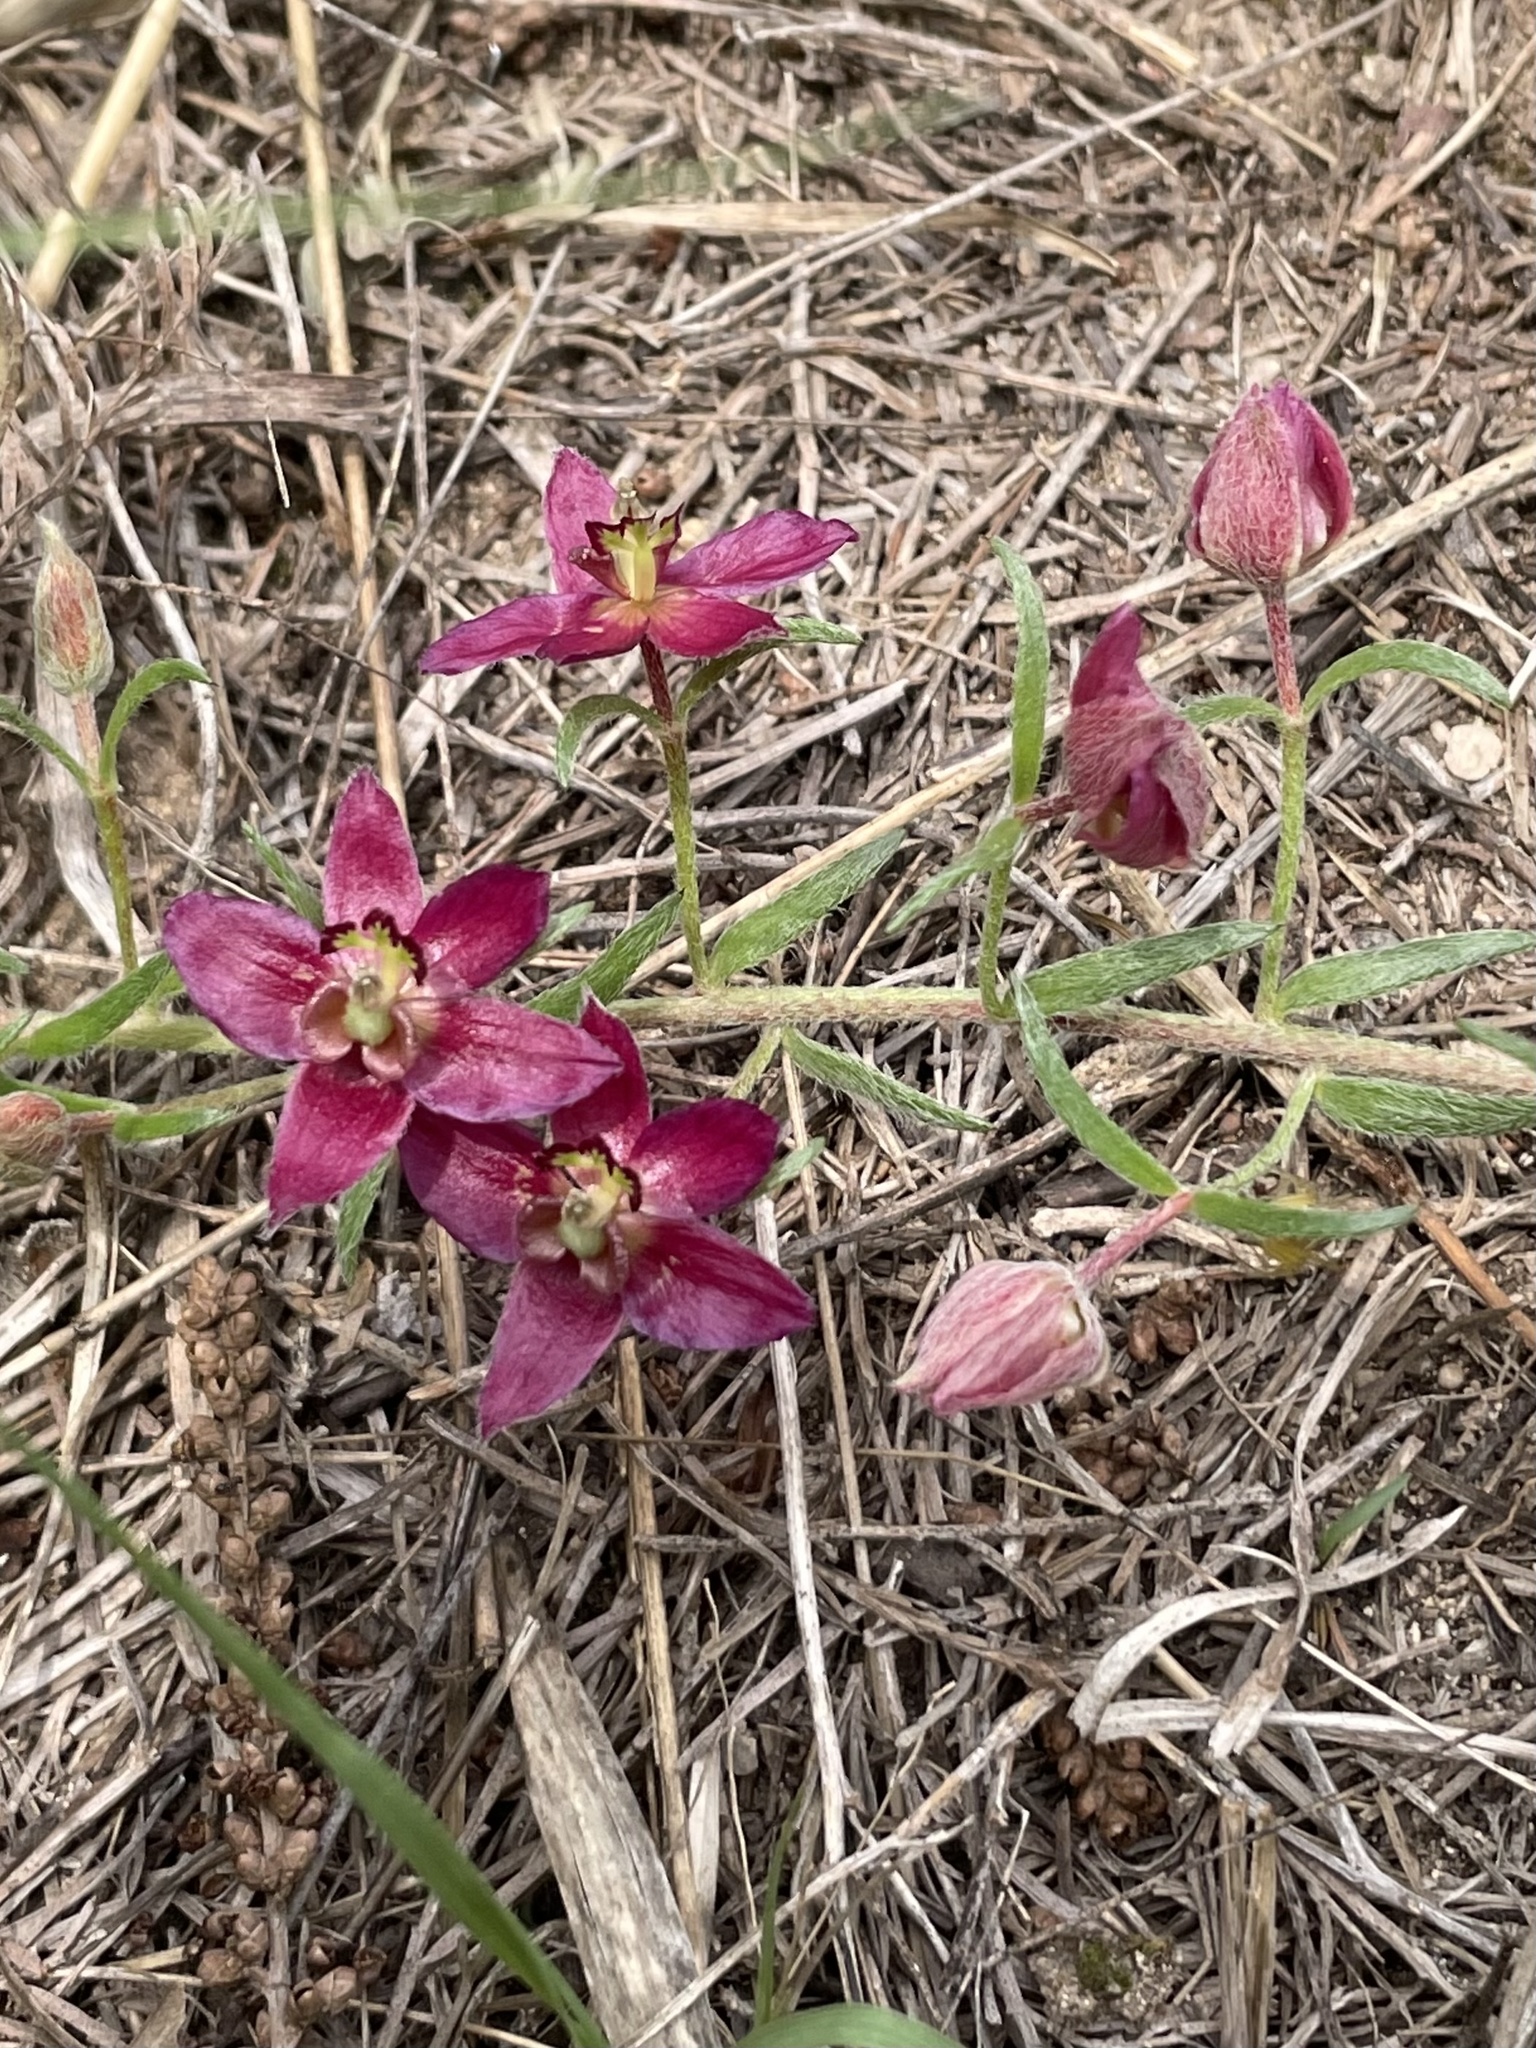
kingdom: Plantae
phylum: Tracheophyta
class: Magnoliopsida
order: Zygophyllales
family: Krameriaceae
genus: Krameria
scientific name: Krameria lanceolata
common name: Ratany
